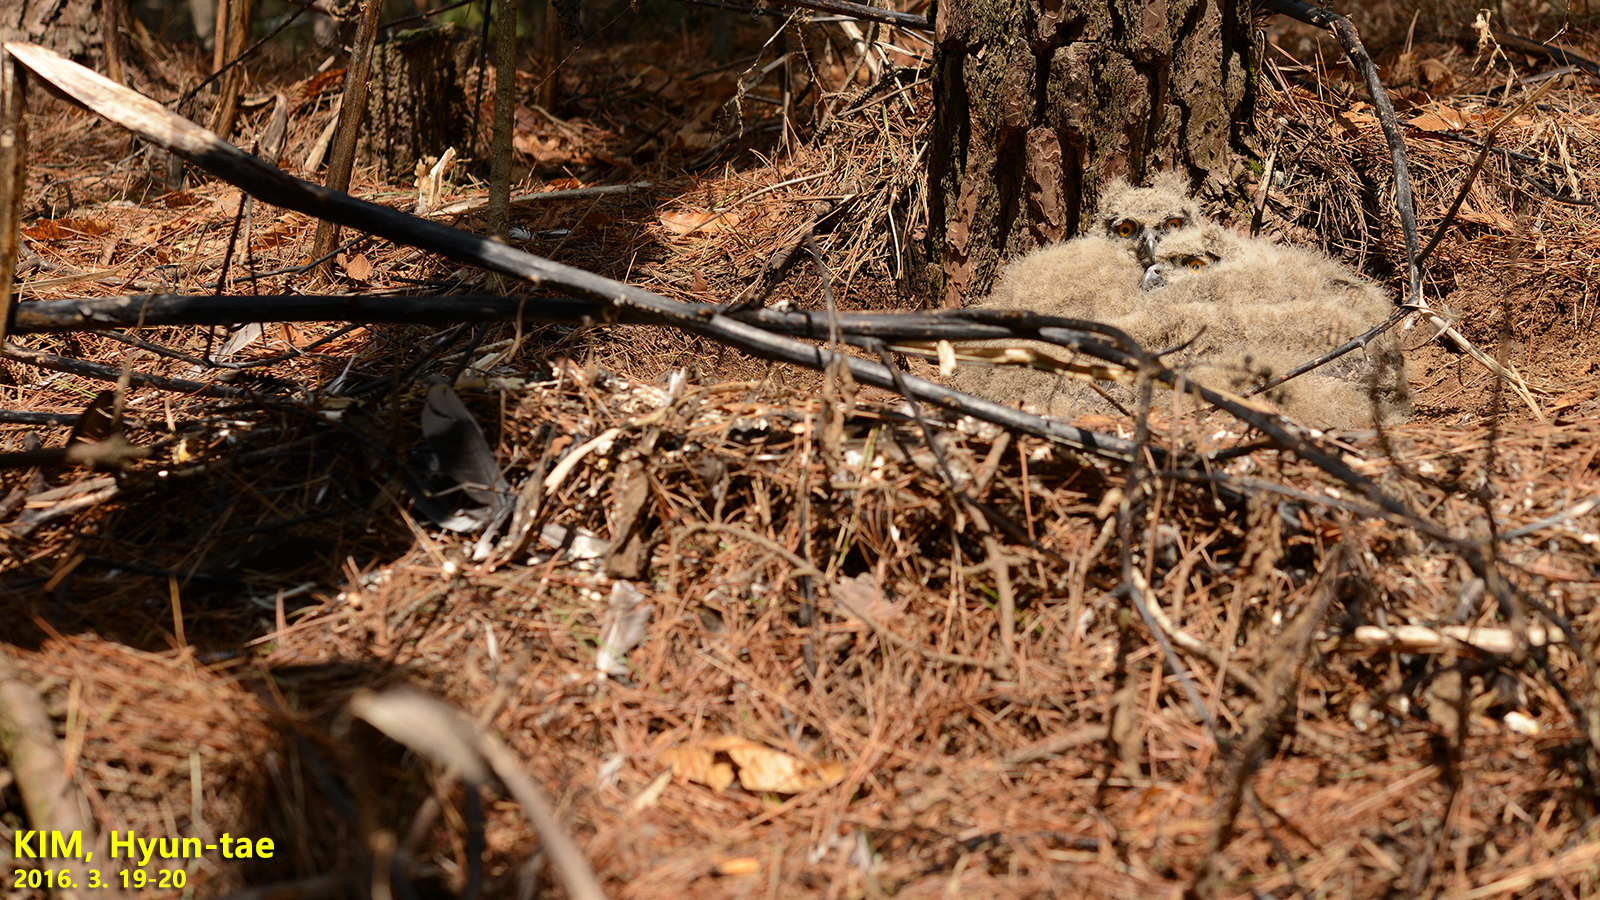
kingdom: Animalia
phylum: Chordata
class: Aves
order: Strigiformes
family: Strigidae
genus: Bubo
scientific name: Bubo bubo
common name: Eurasian eagle-owl
